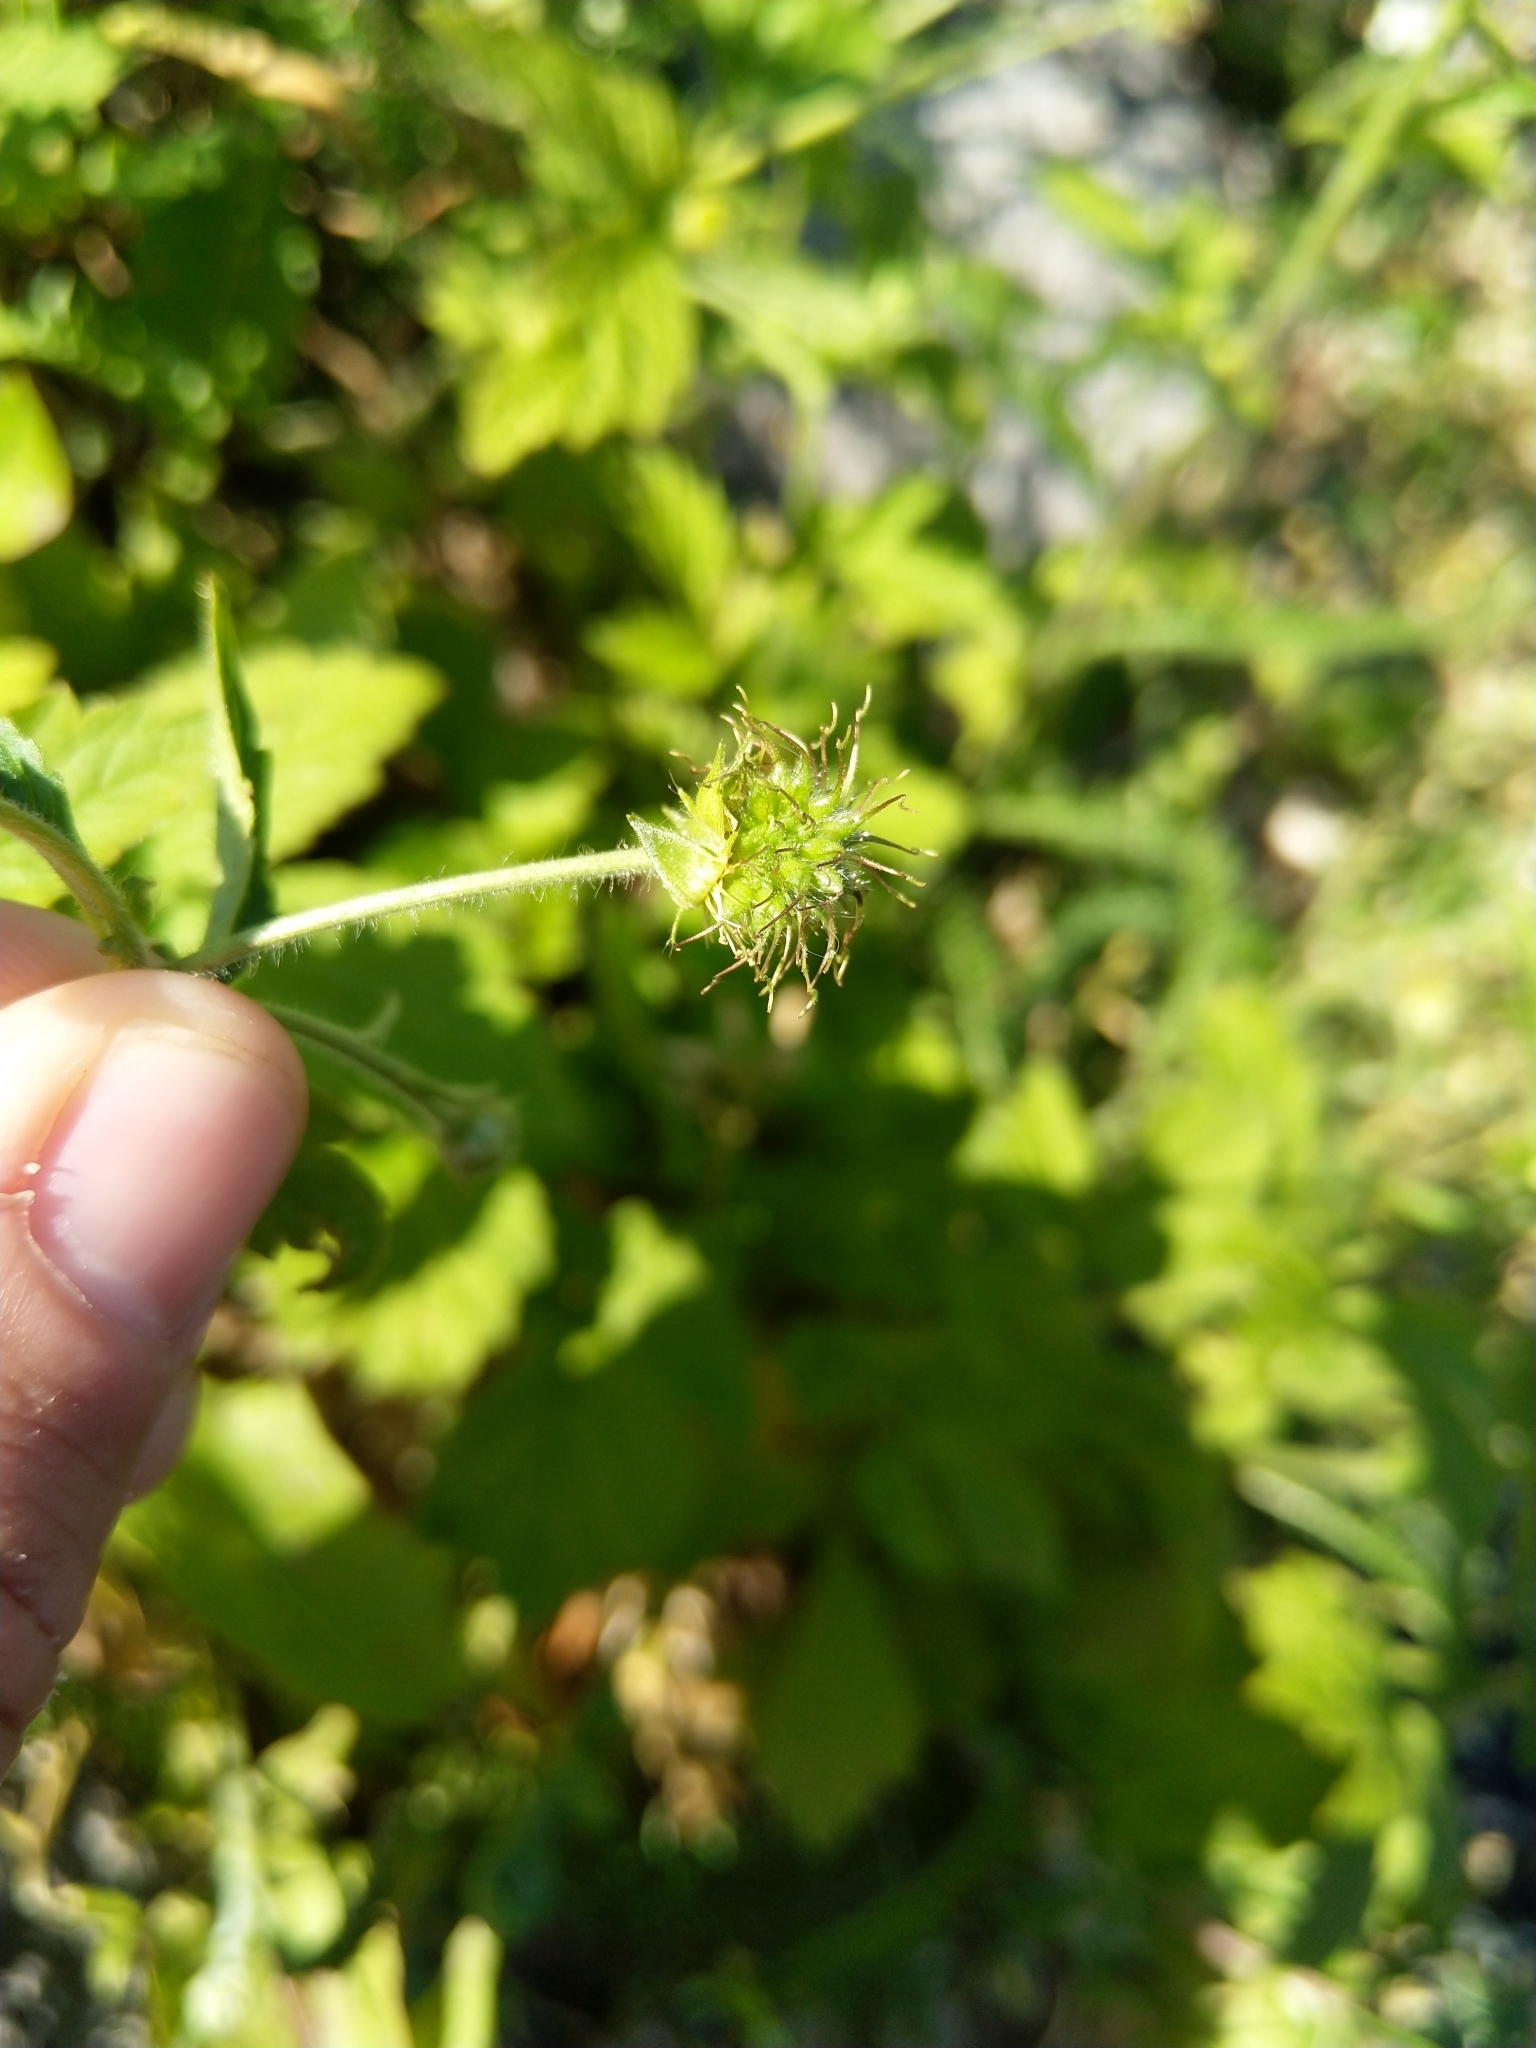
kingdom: Plantae
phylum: Tracheophyta
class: Magnoliopsida
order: Rosales
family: Rosaceae
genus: Geum
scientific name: Geum urbanum
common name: Wood avens
